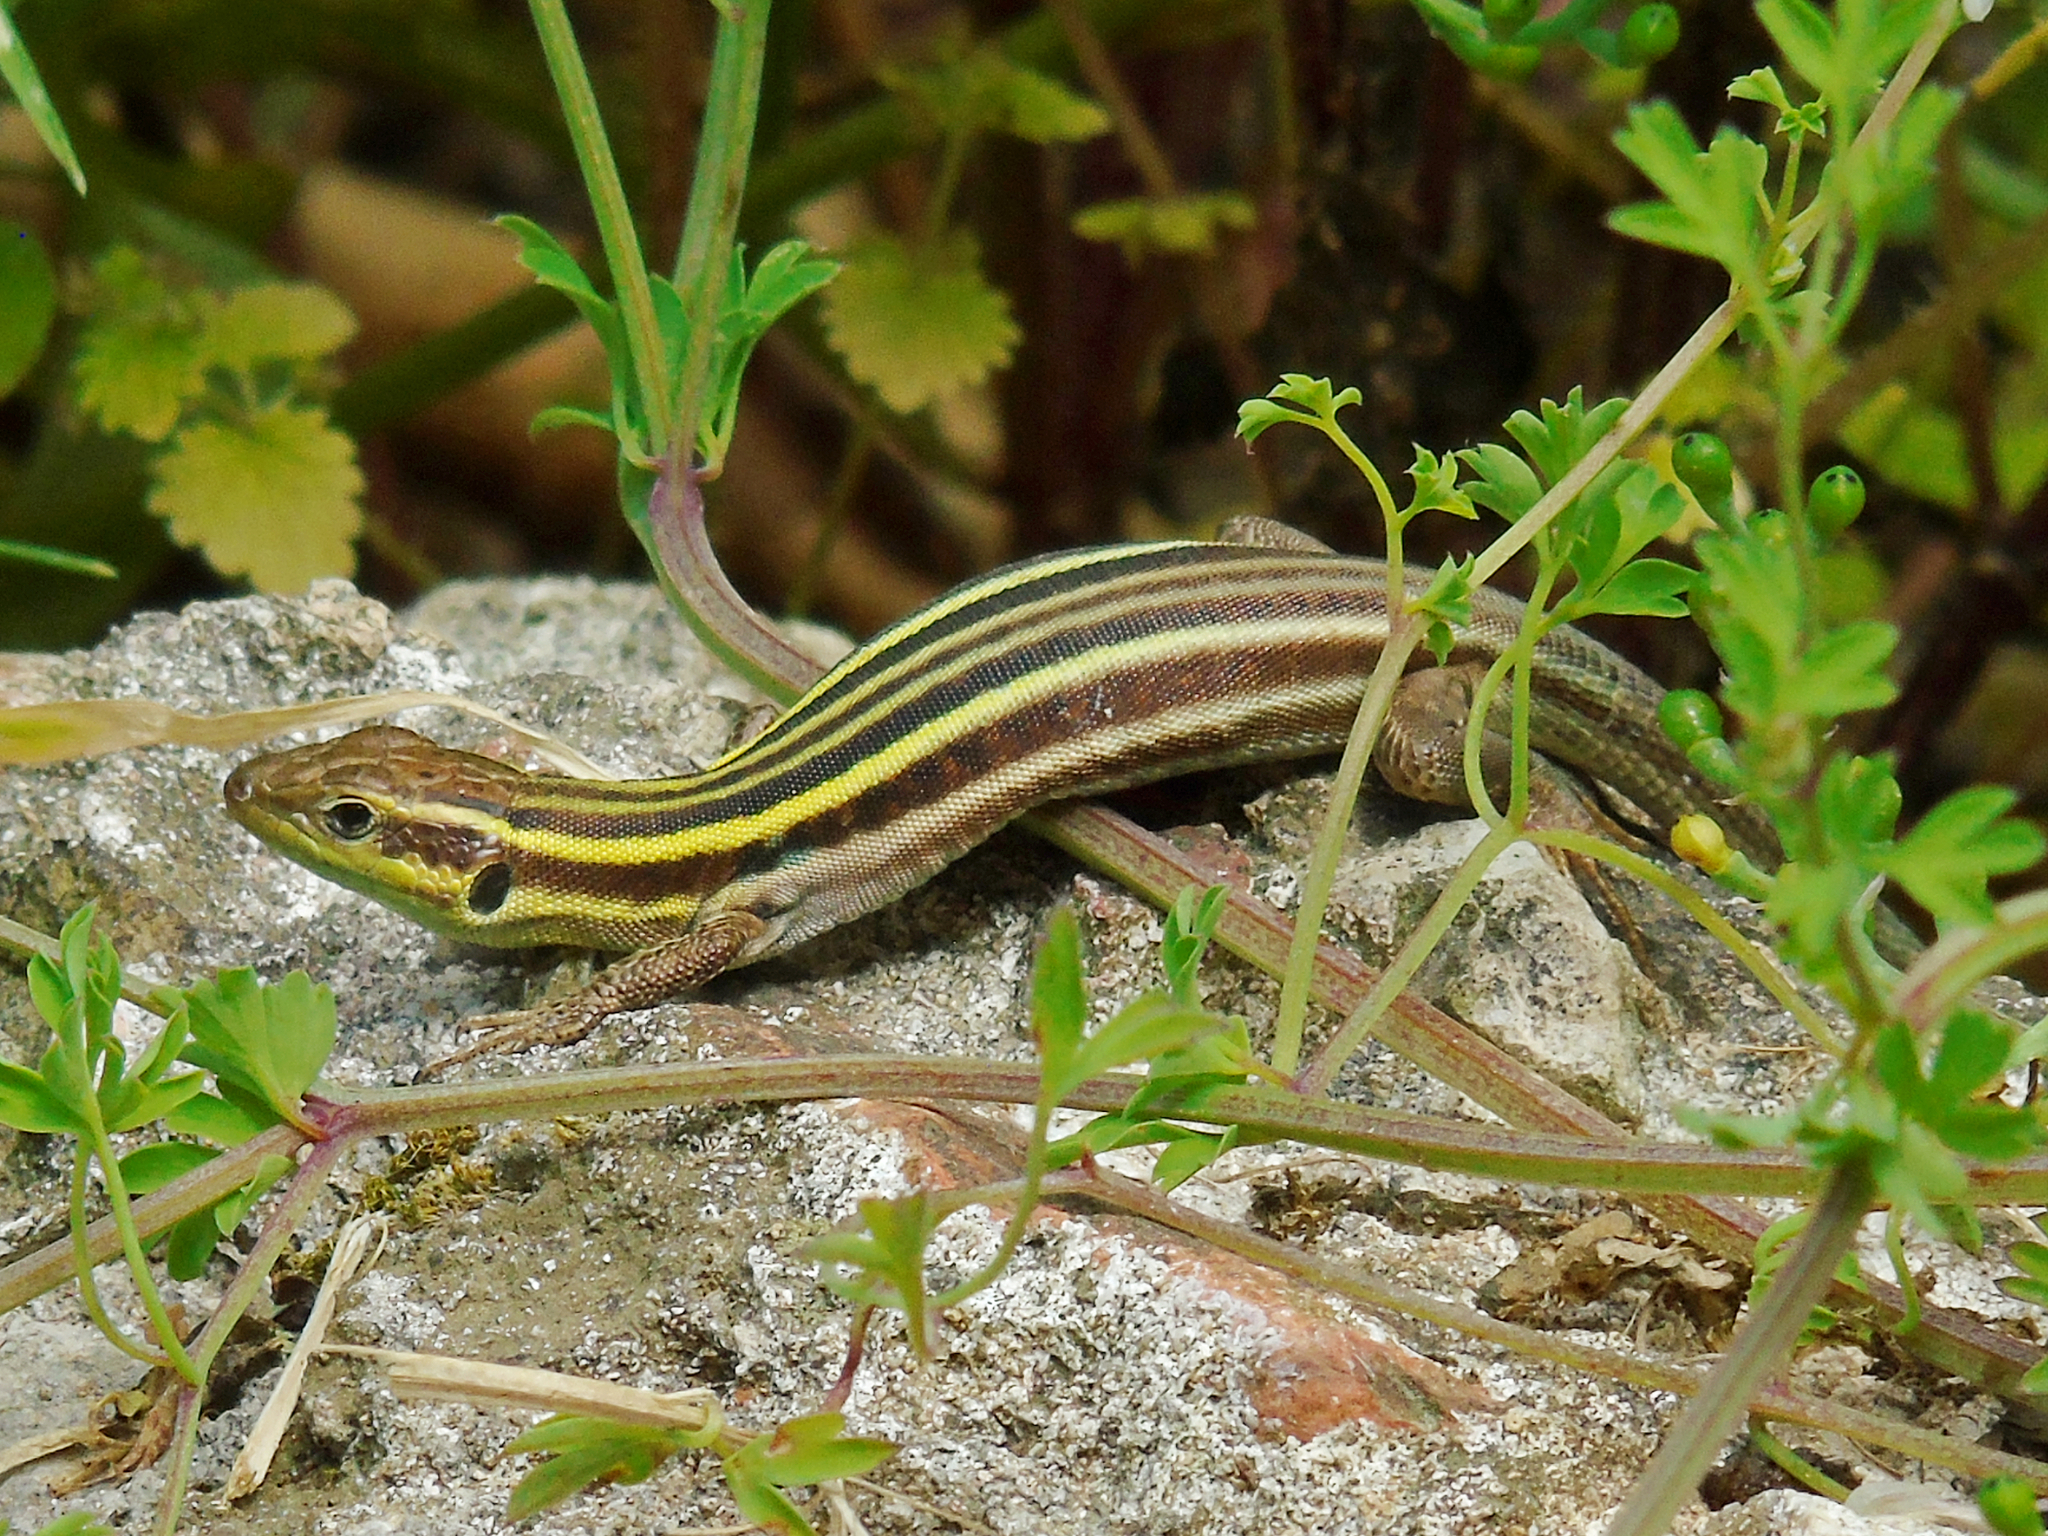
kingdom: Animalia
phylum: Chordata
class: Squamata
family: Lacertidae
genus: Podarcis
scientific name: Podarcis peloponnesiacus
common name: Peloponnese wall lizard
